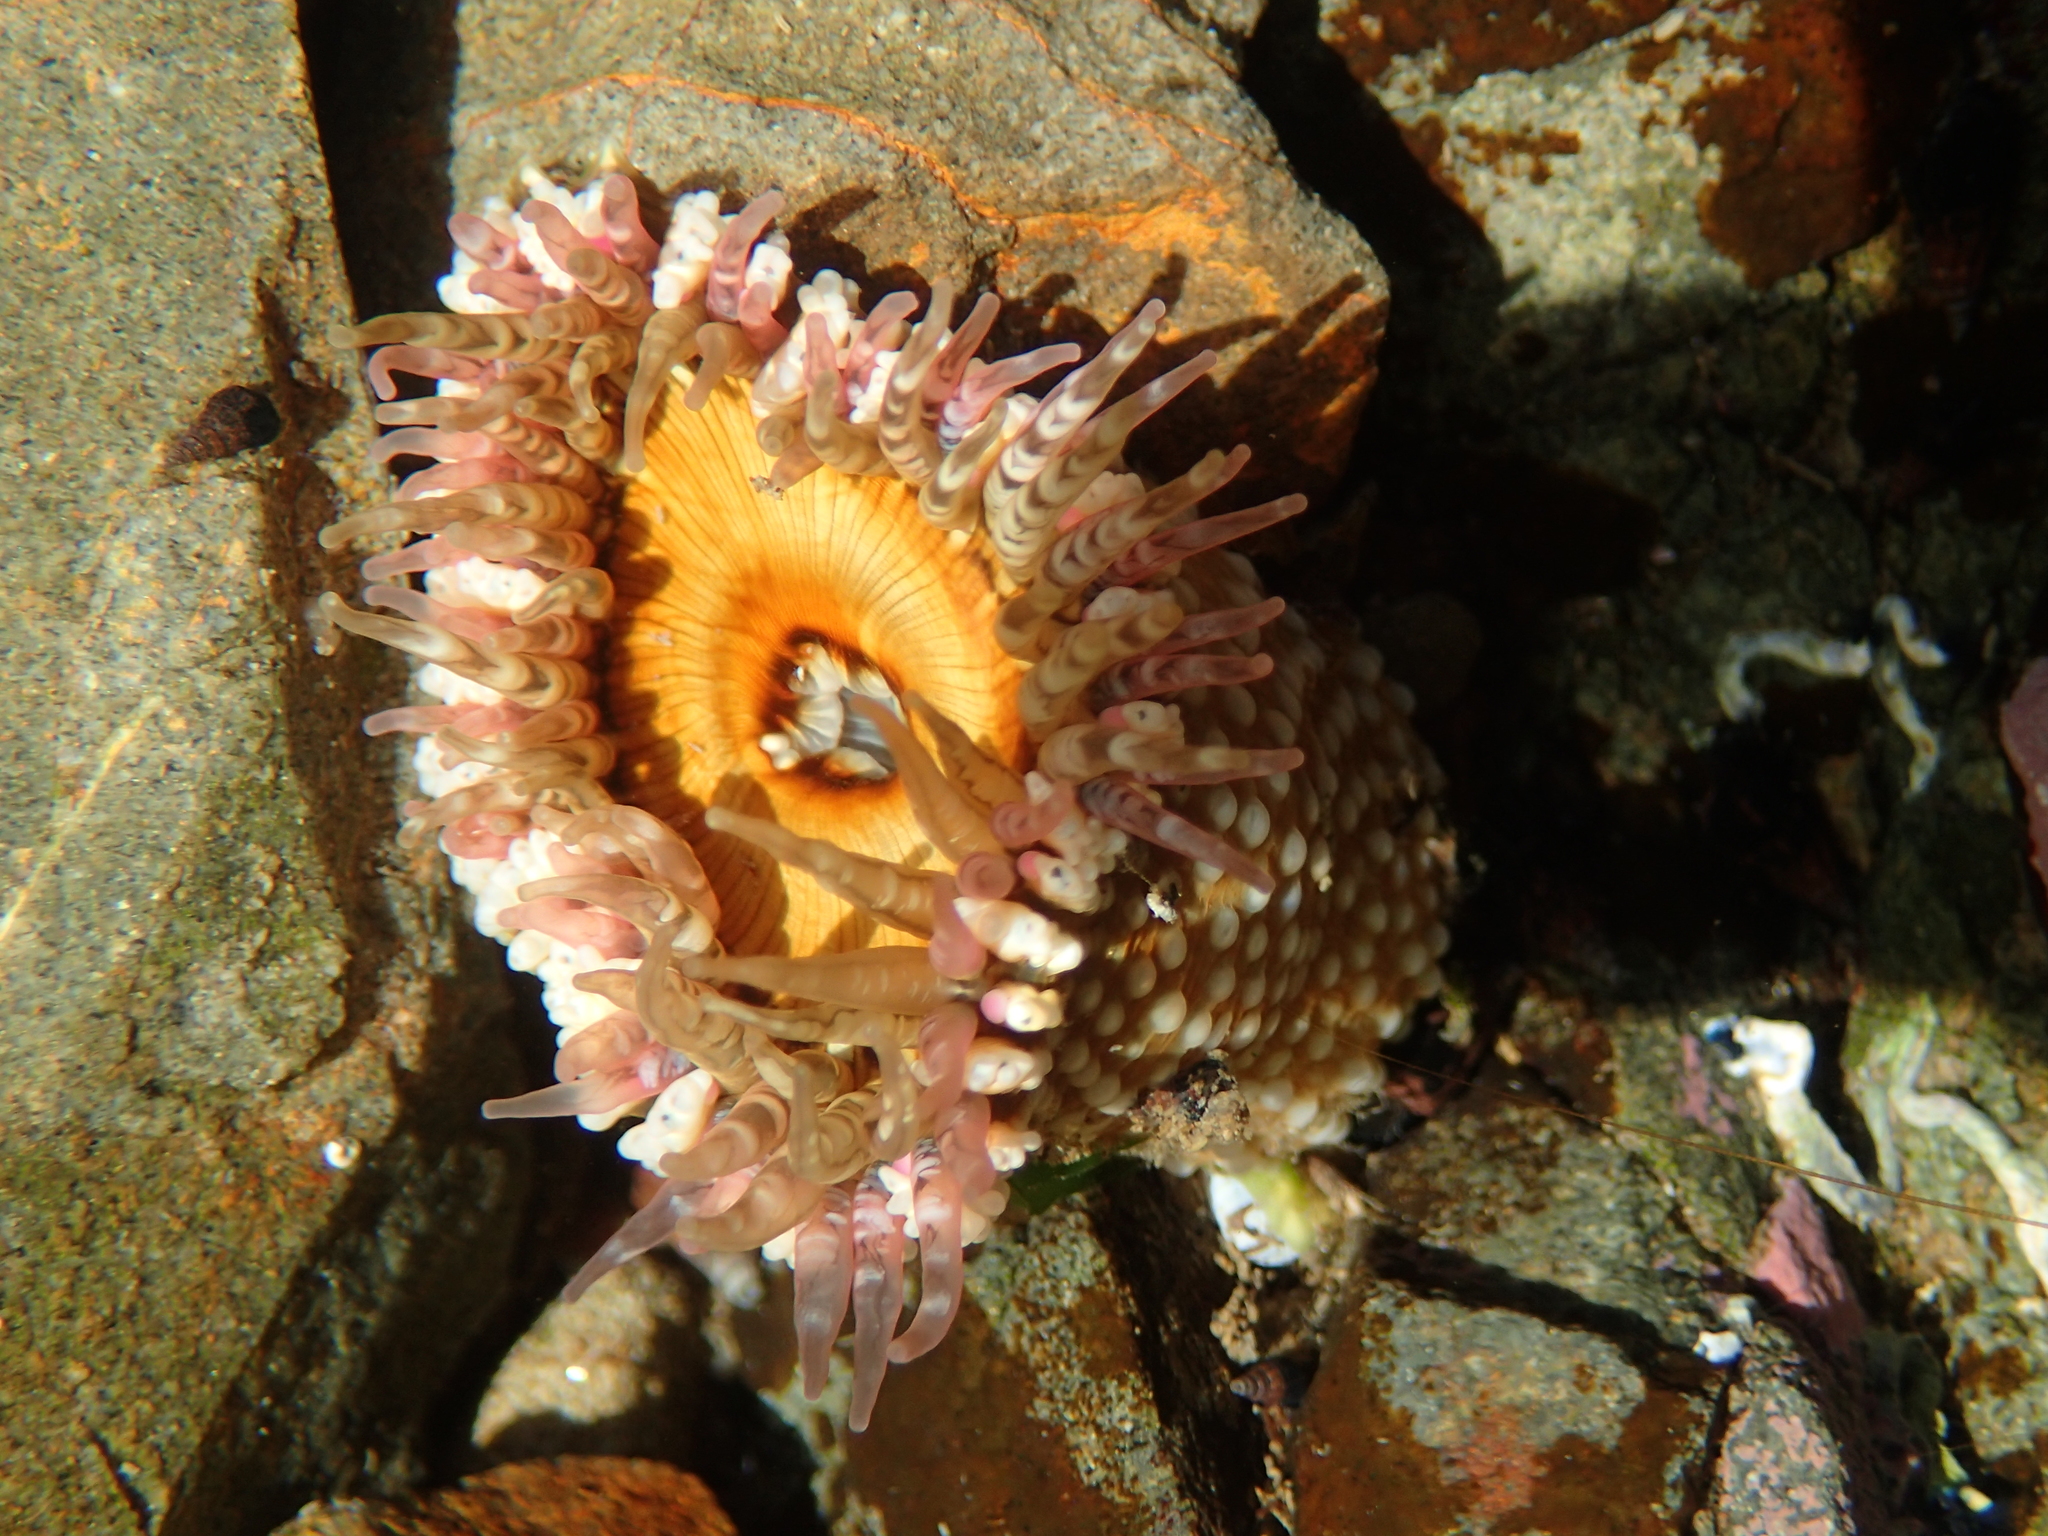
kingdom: Animalia
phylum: Cnidaria
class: Anthozoa
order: Actiniaria
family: Actiniidae
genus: Oulactis
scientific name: Oulactis muscosa
